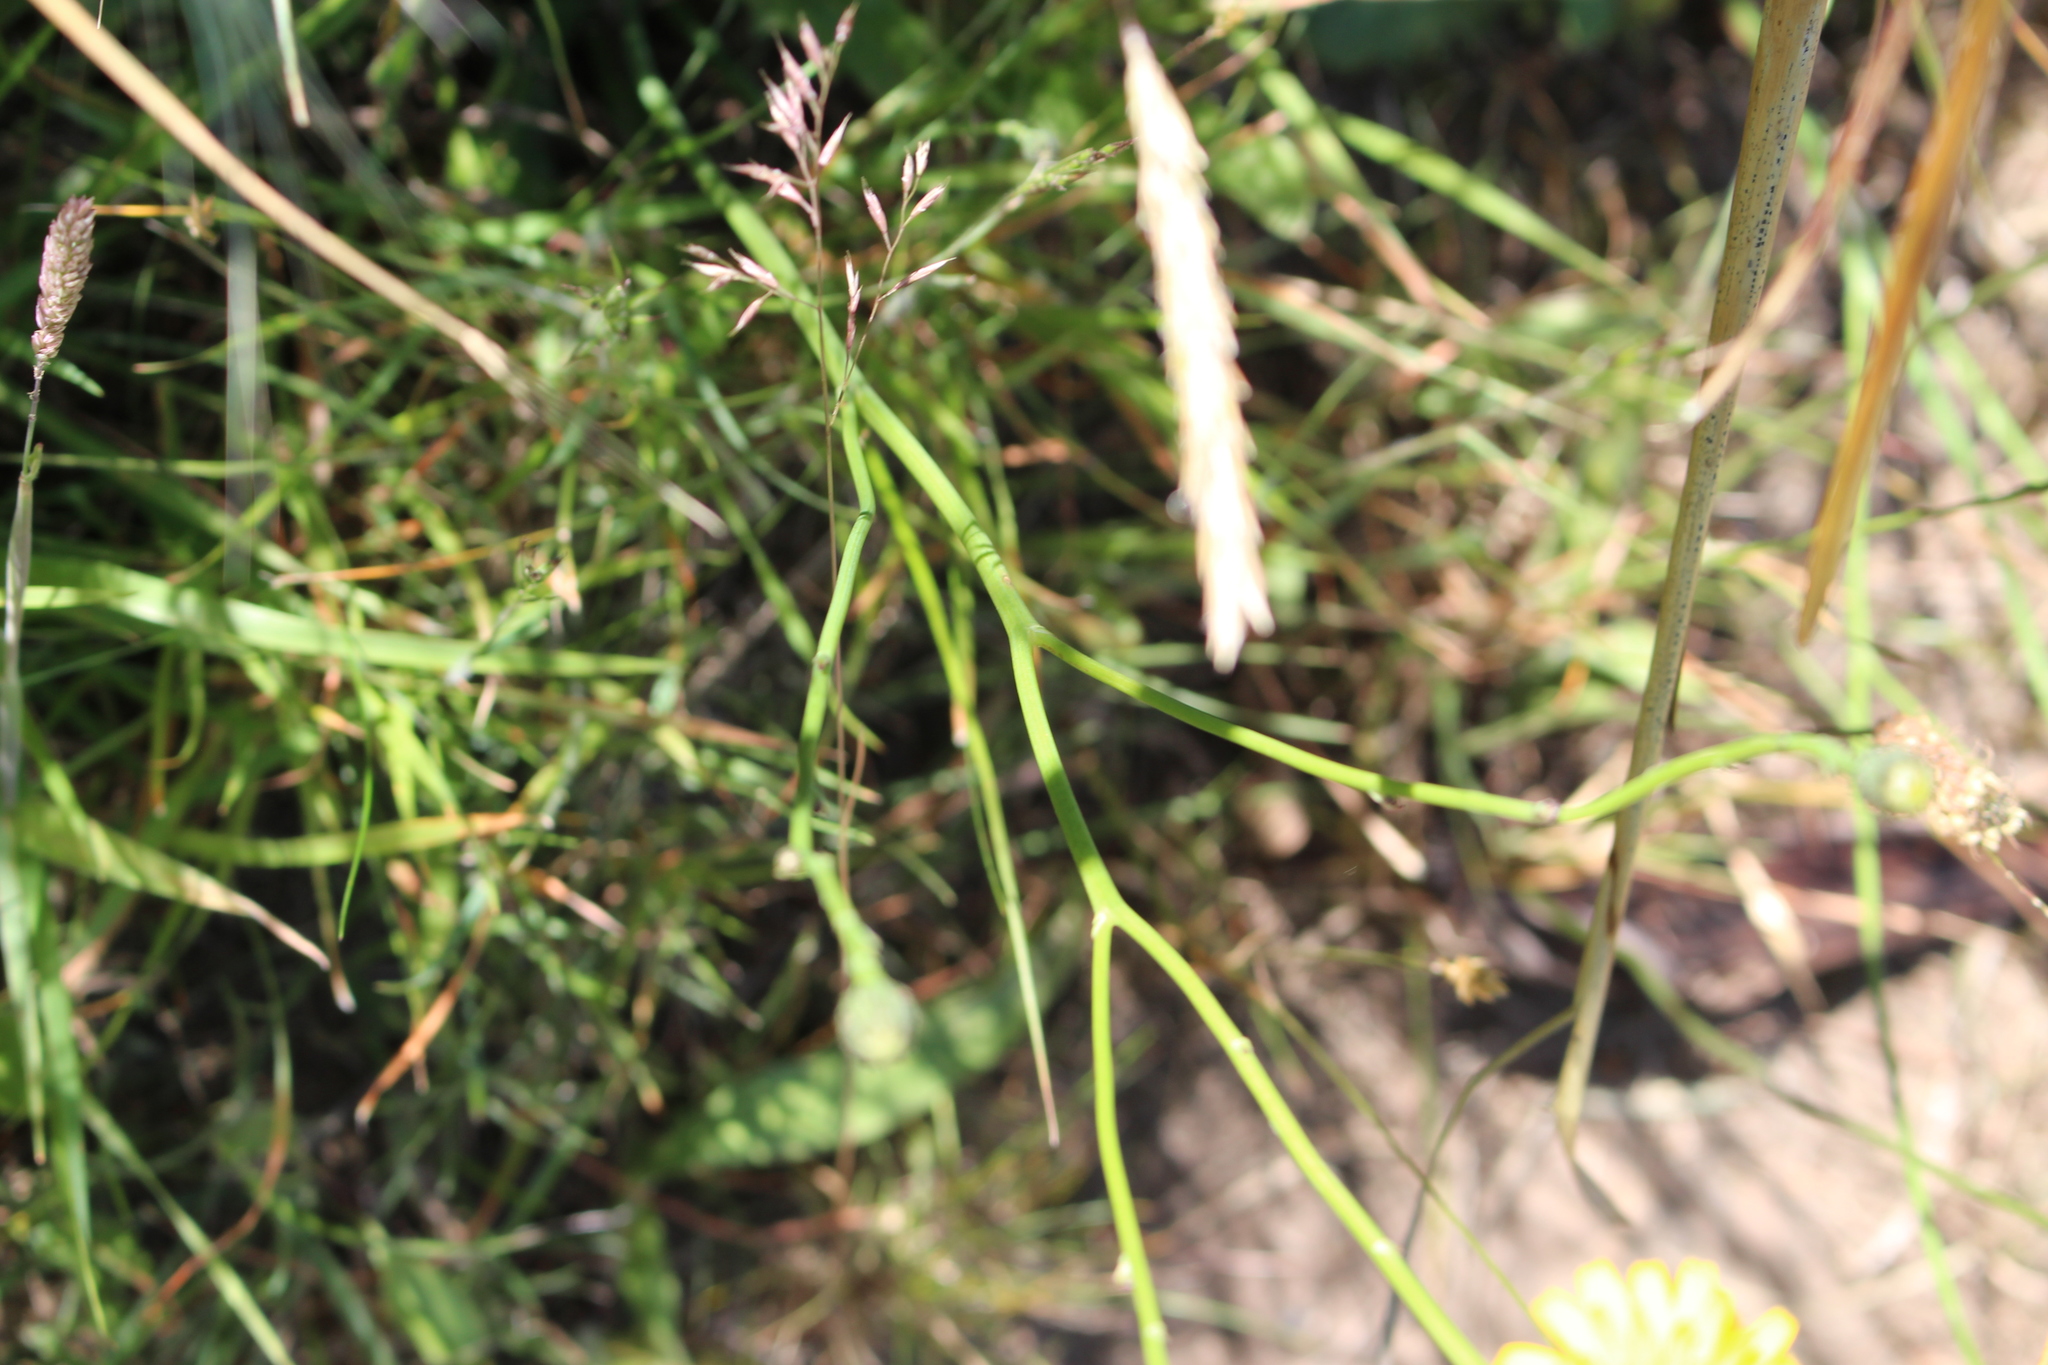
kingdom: Plantae
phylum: Tracheophyta
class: Magnoliopsida
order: Asterales
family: Asteraceae
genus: Hypochaeris
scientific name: Hypochaeris radicata
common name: Flatweed
